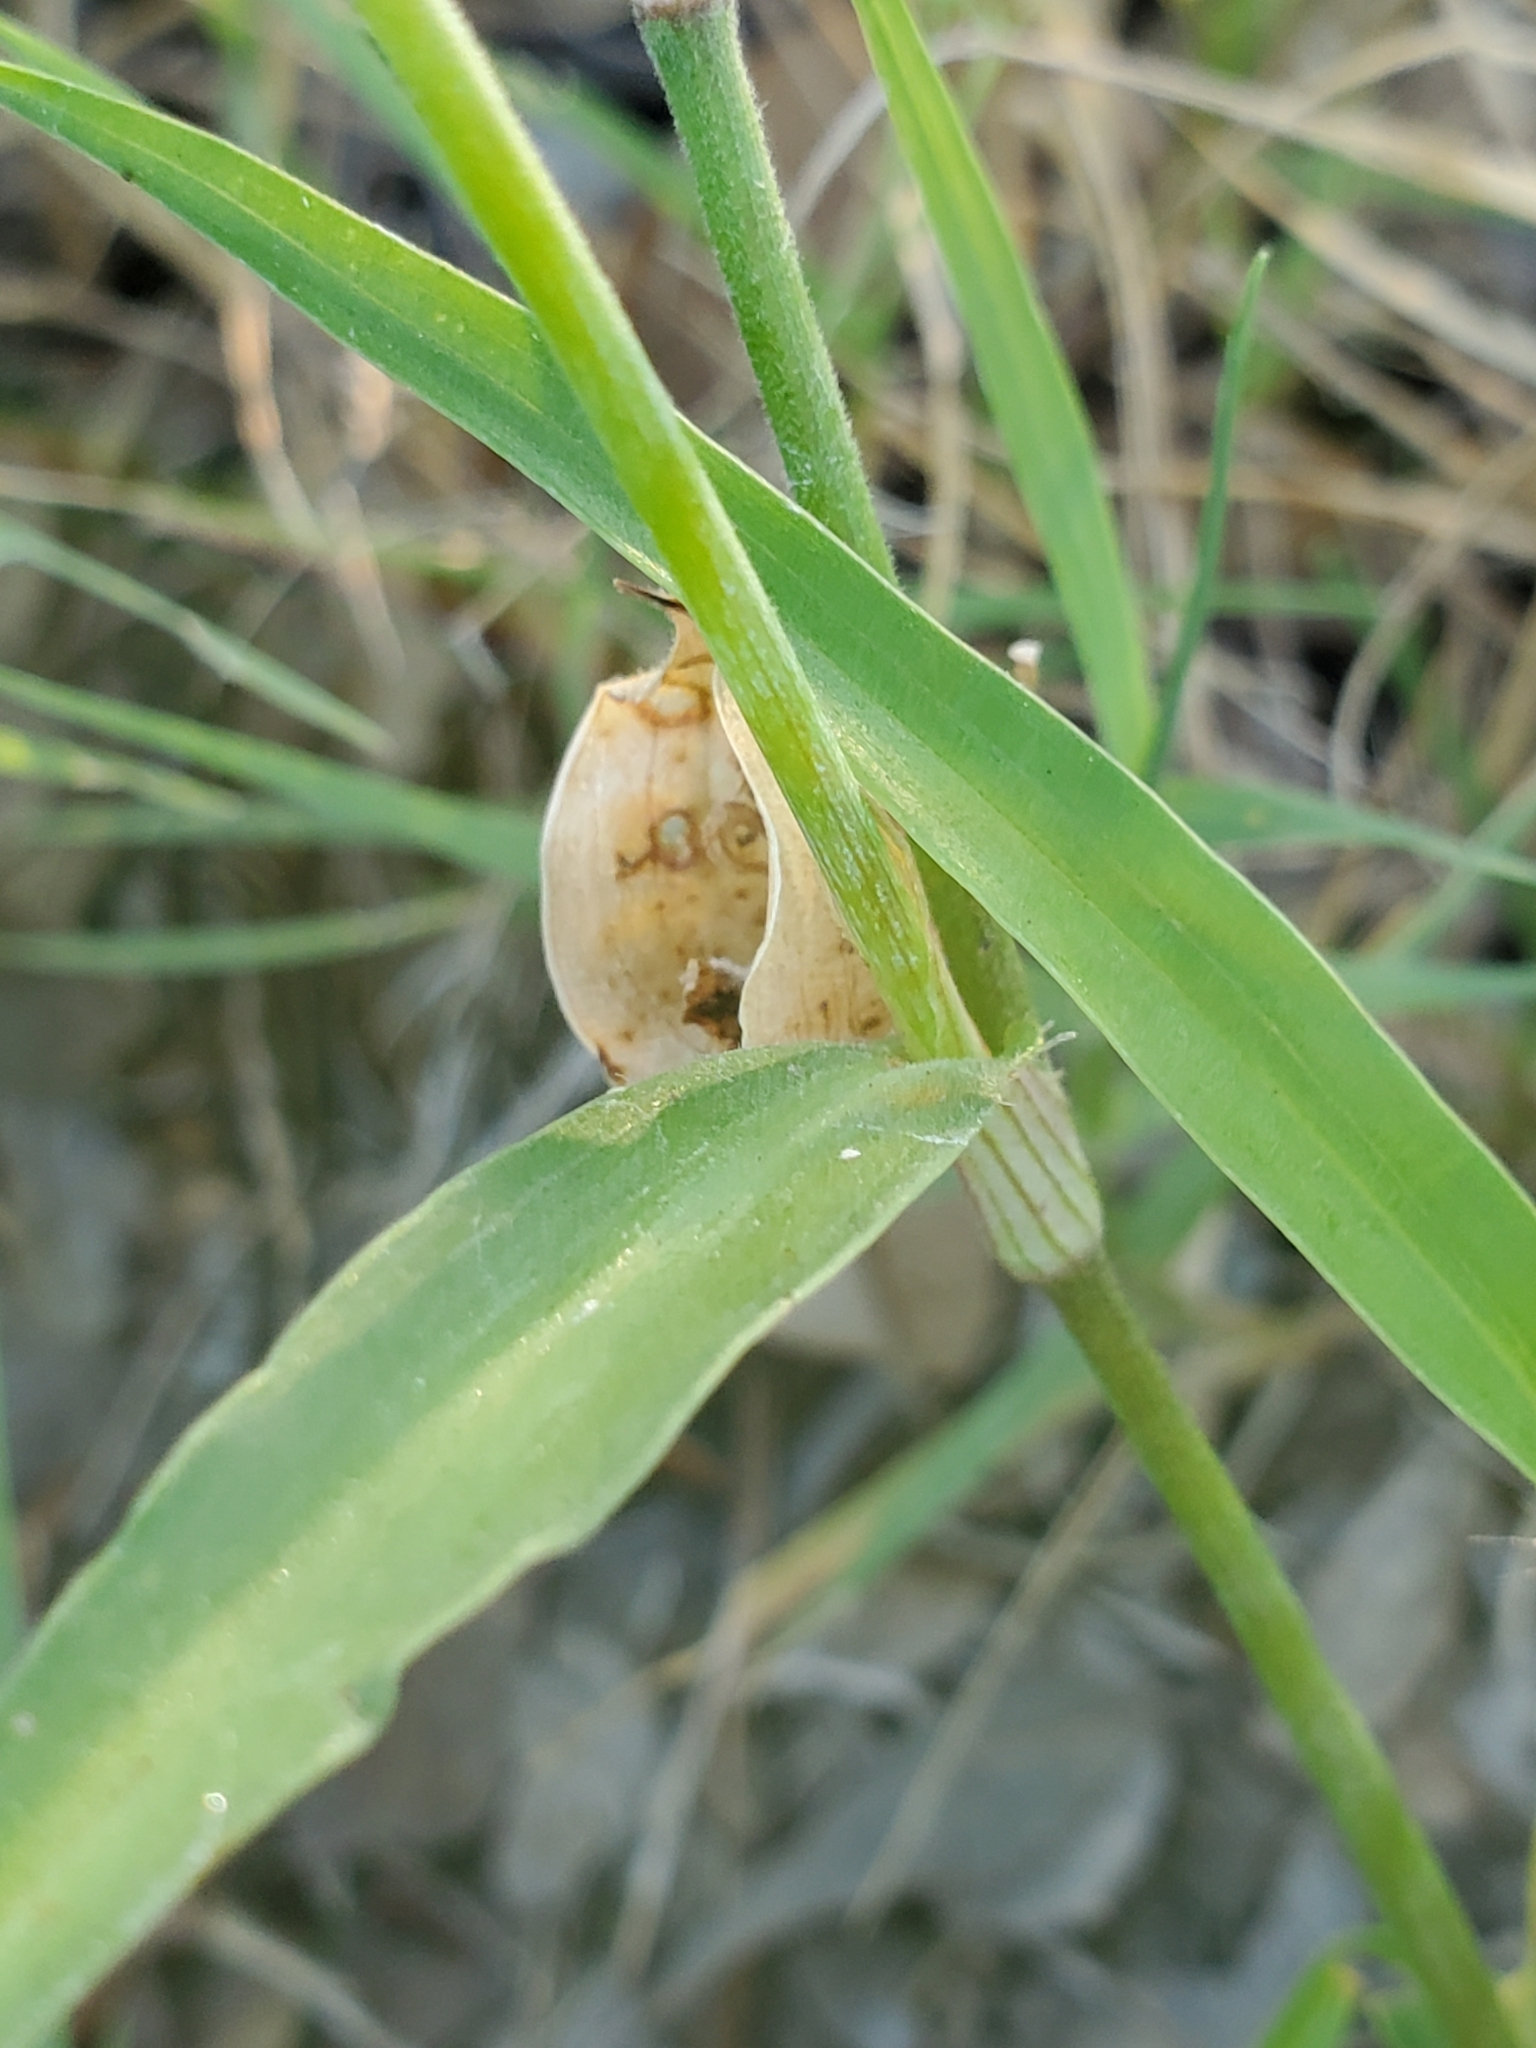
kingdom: Plantae
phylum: Tracheophyta
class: Liliopsida
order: Commelinales
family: Commelinaceae
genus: Commelina
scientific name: Commelina erecta
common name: Blousel blommetjie
